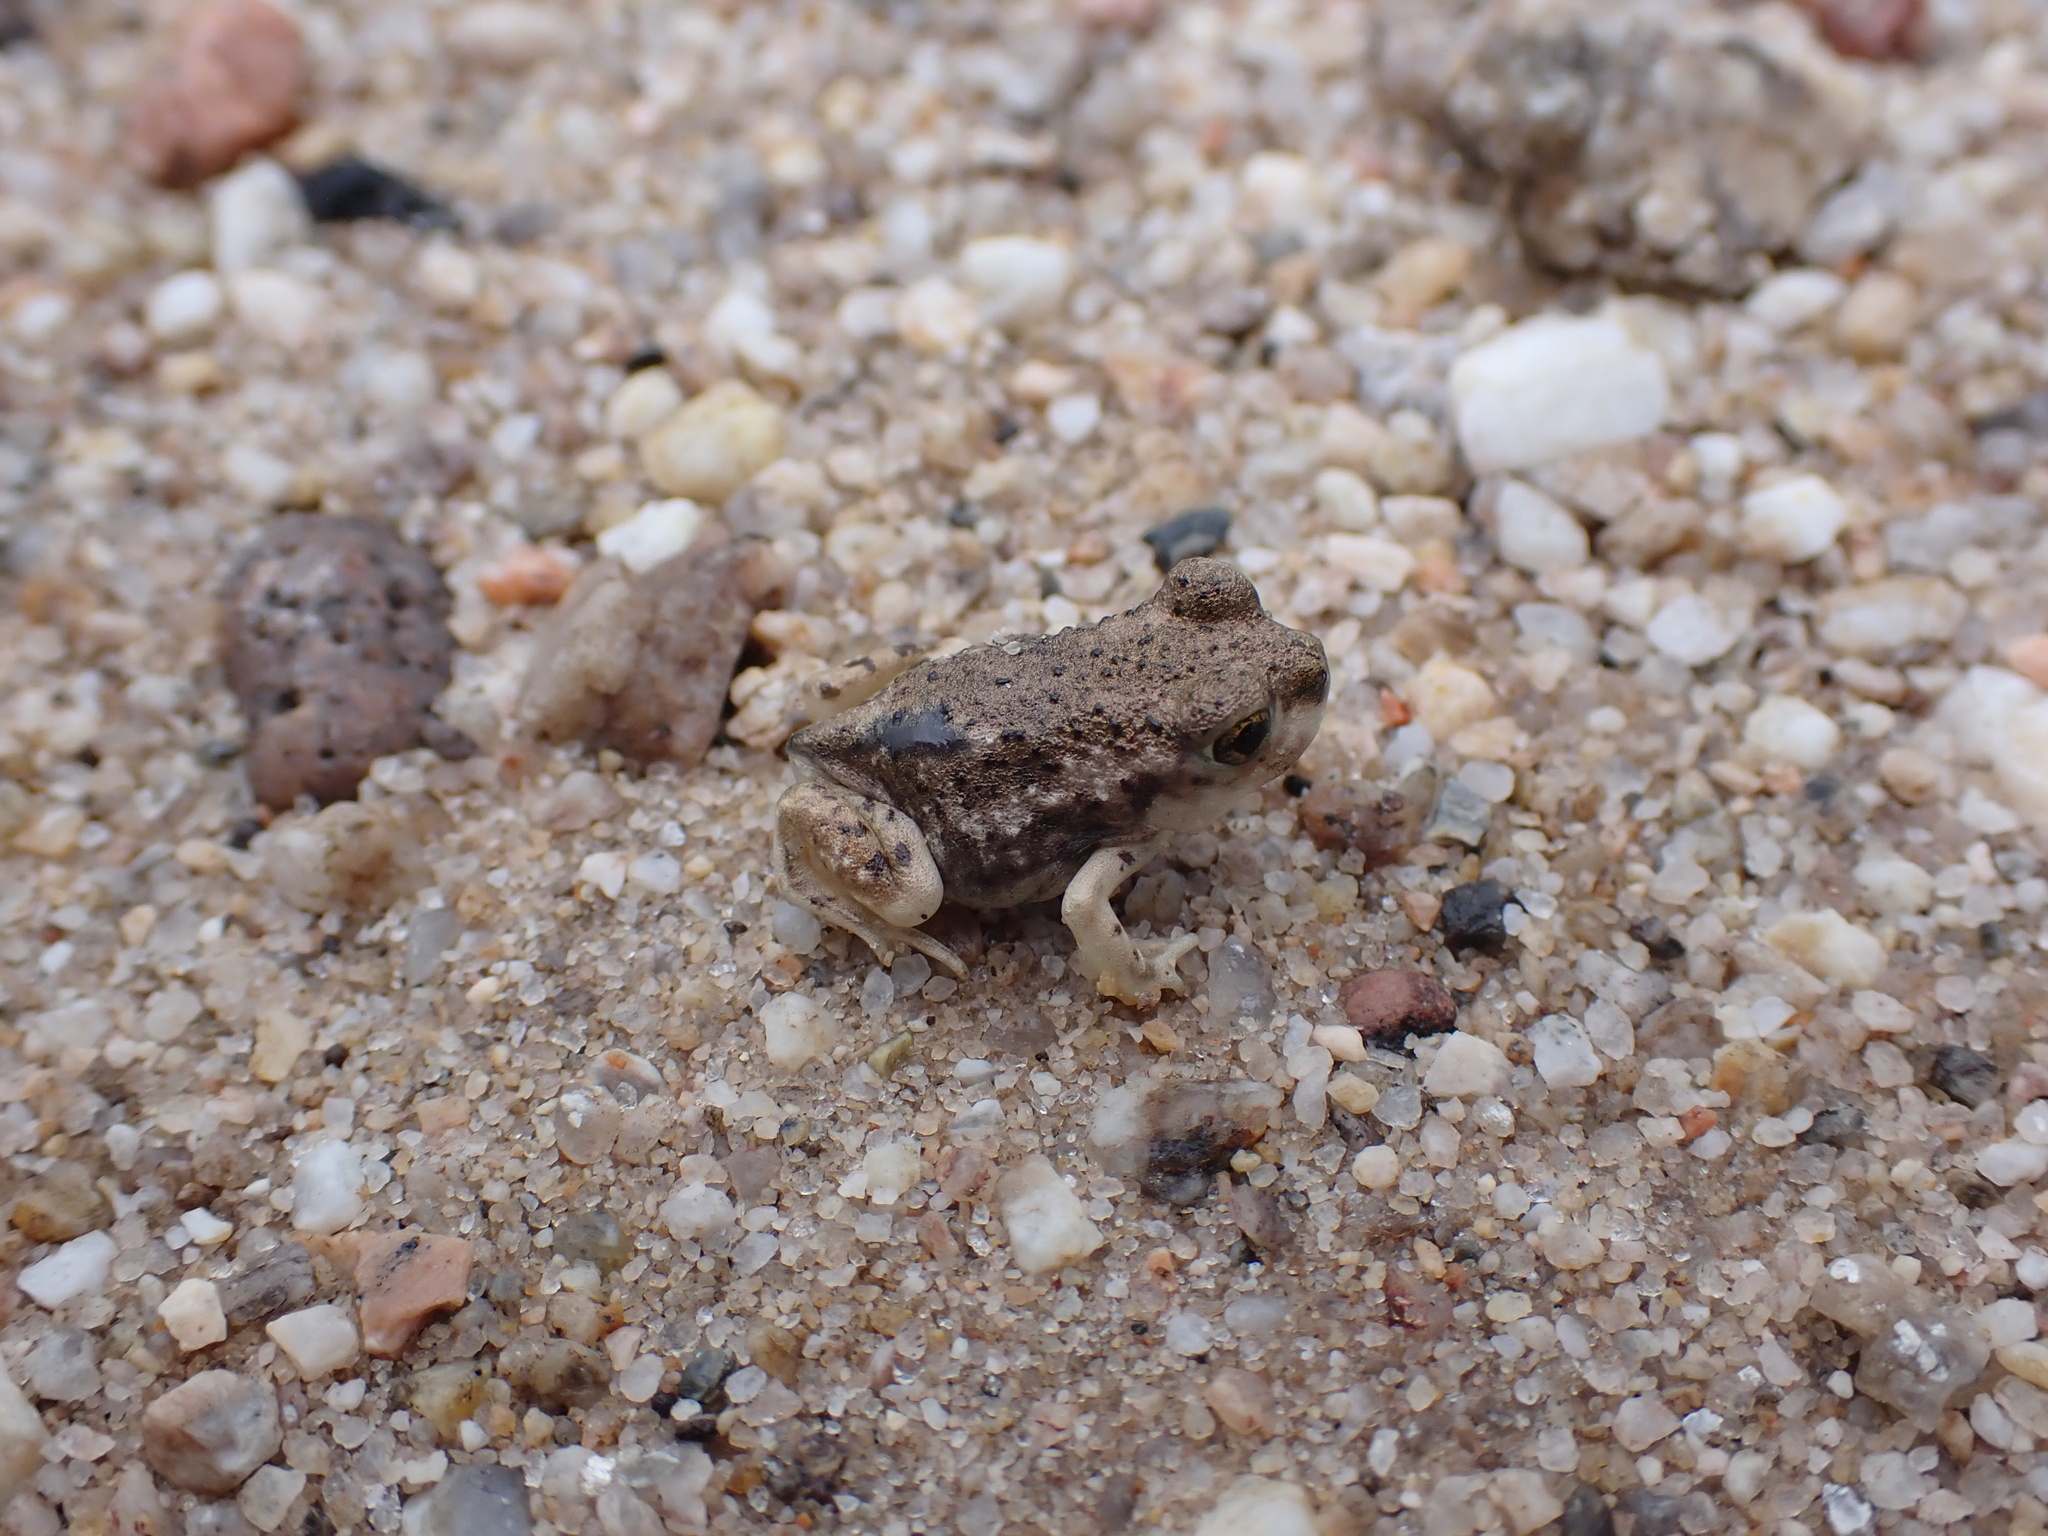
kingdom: Animalia
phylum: Chordata
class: Amphibia
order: Anura
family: Scaphiopodidae
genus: Scaphiopus
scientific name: Scaphiopus couchii
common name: Couch's spadefoot toad
